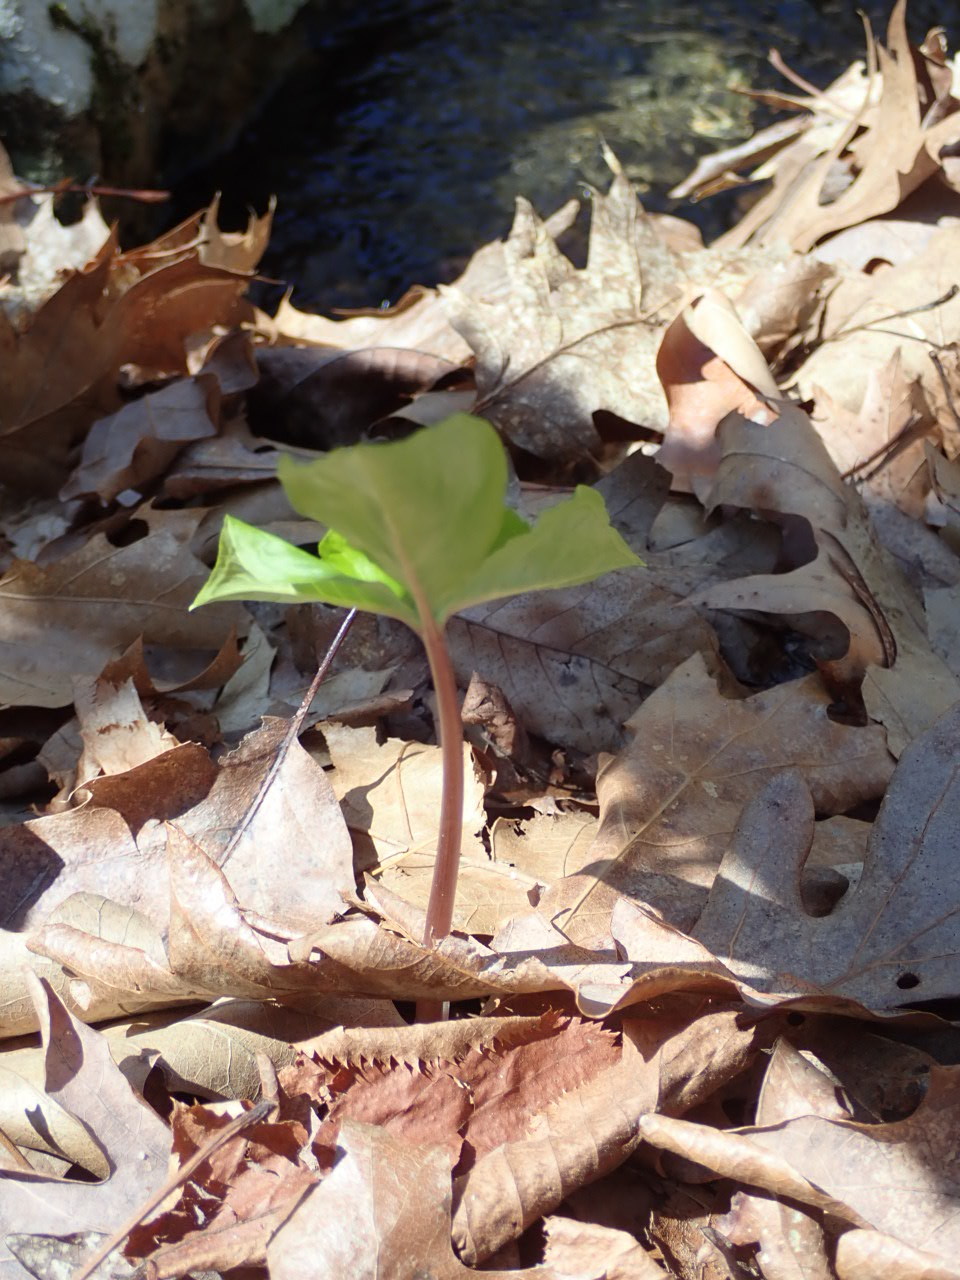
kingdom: Plantae
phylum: Tracheophyta
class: Liliopsida
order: Alismatales
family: Araceae
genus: Arisaema
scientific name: Arisaema triphyllum
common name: Jack-in-the-pulpit
